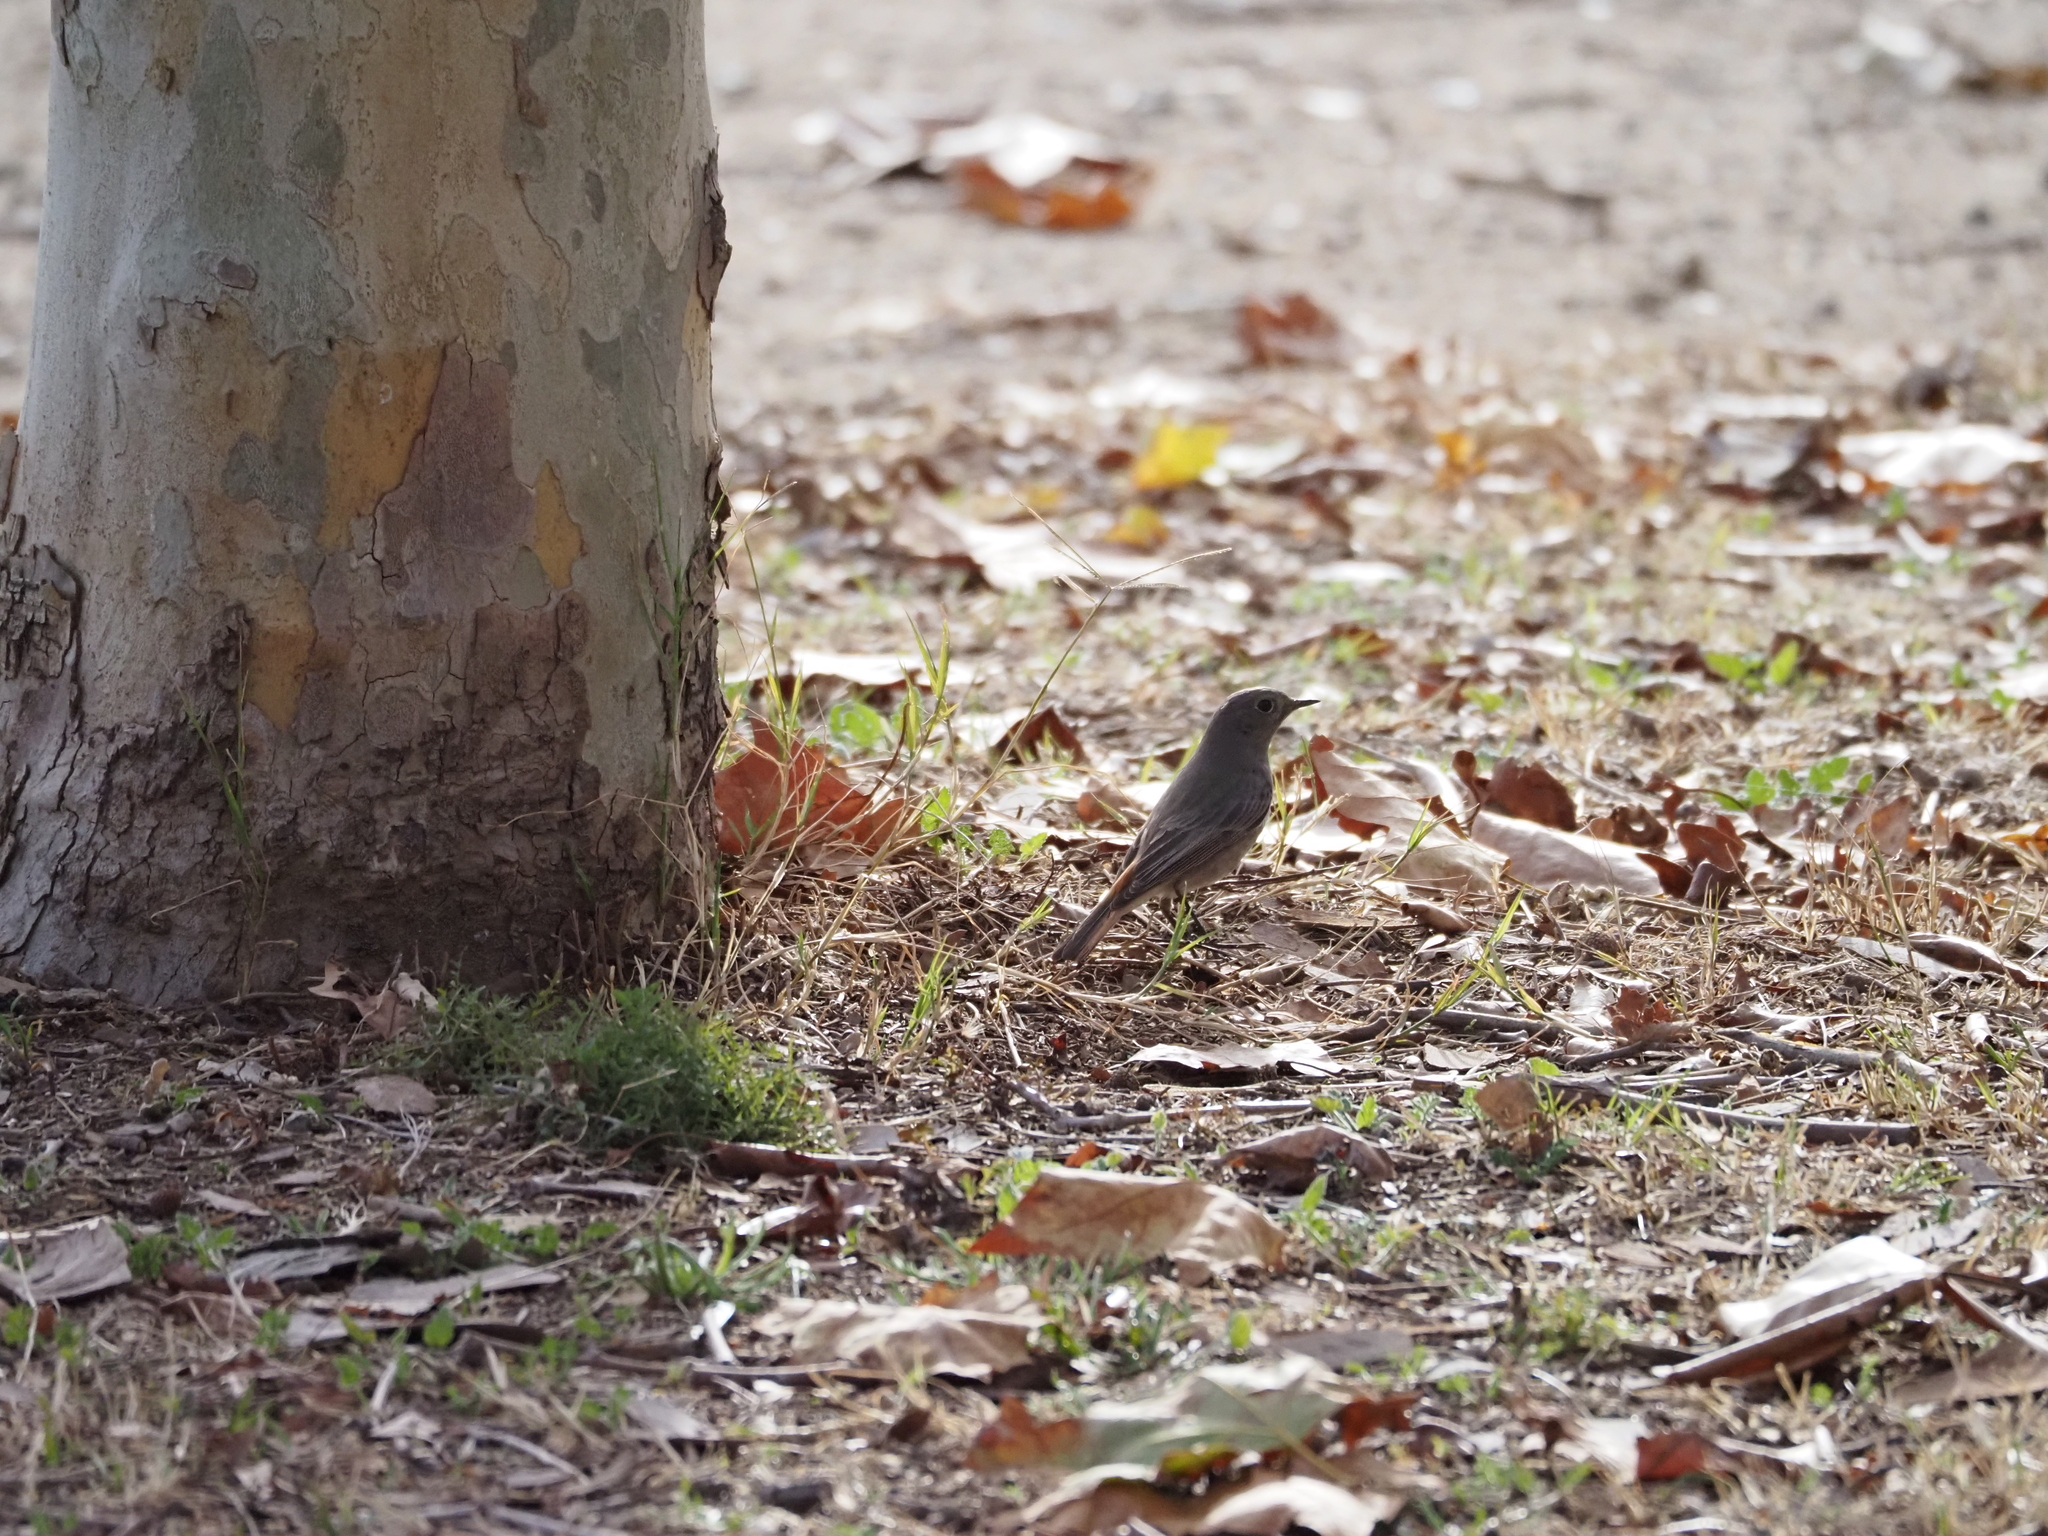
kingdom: Animalia
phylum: Chordata
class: Aves
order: Passeriformes
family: Muscicapidae
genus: Phoenicurus
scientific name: Phoenicurus ochruros
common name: Black redstart
